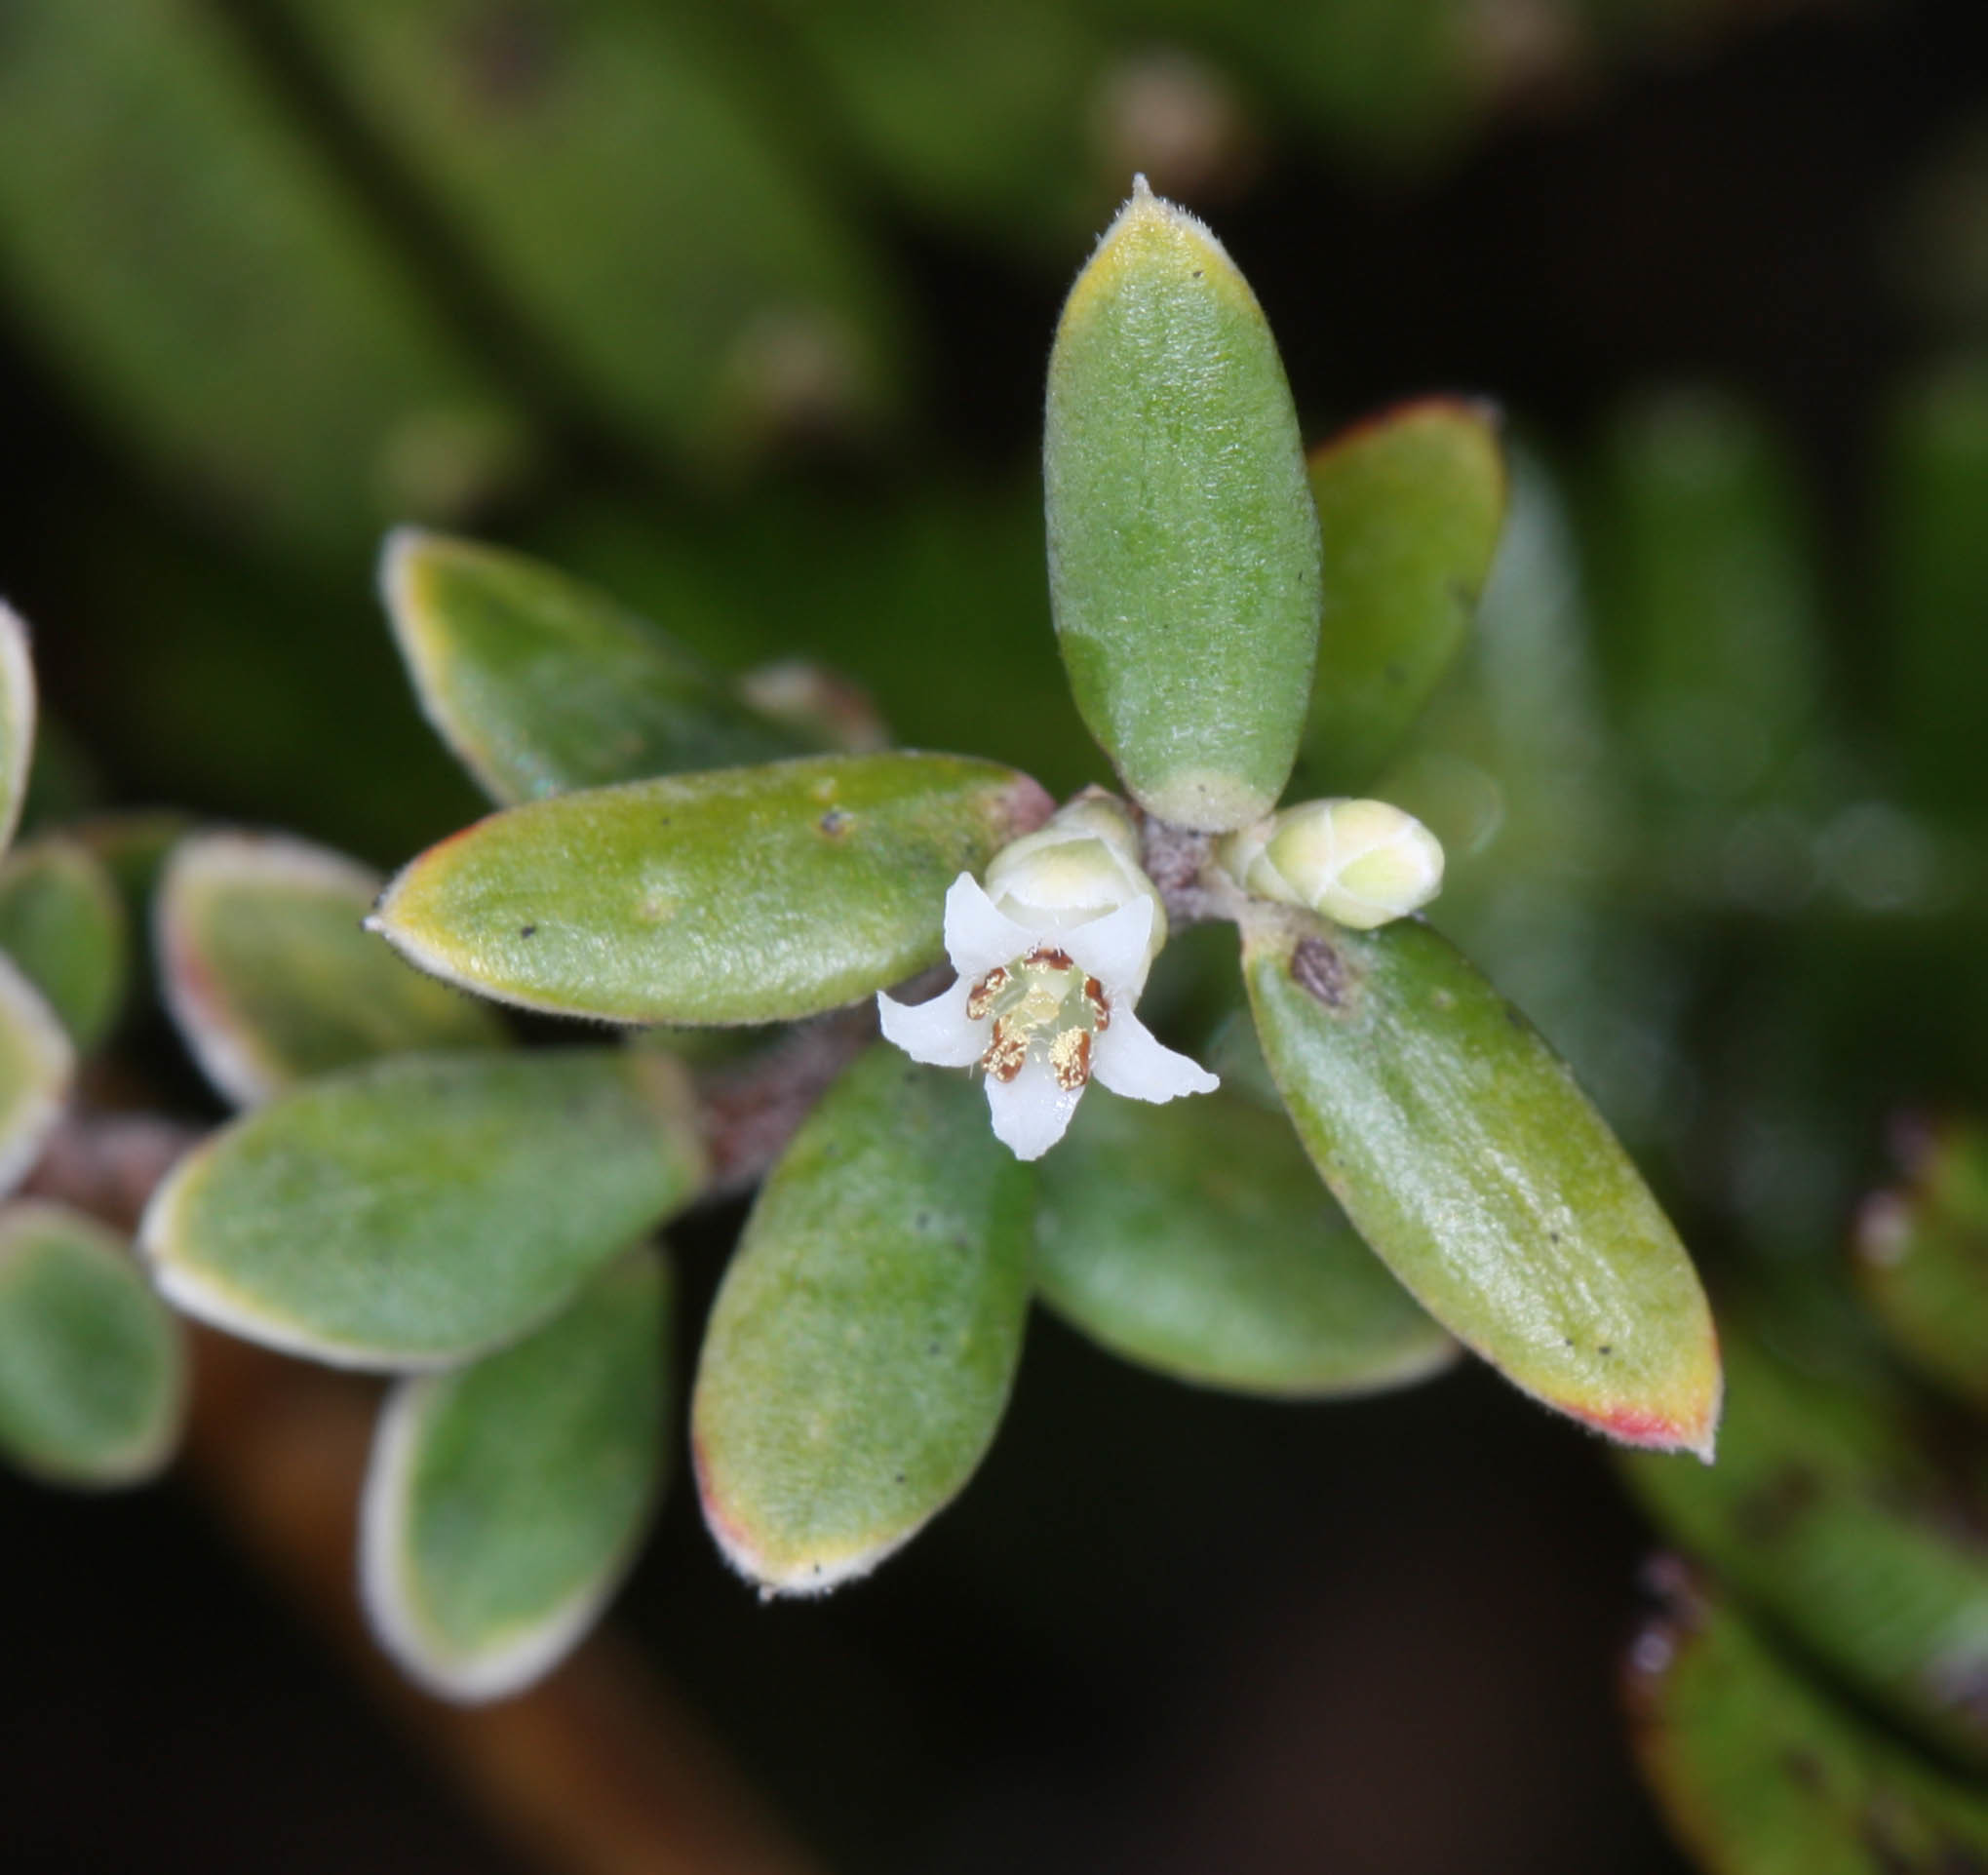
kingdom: Plantae
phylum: Tracheophyta
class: Magnoliopsida
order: Ericales
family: Ericaceae
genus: Leptecophylla
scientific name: Leptecophylla tameiameiae
